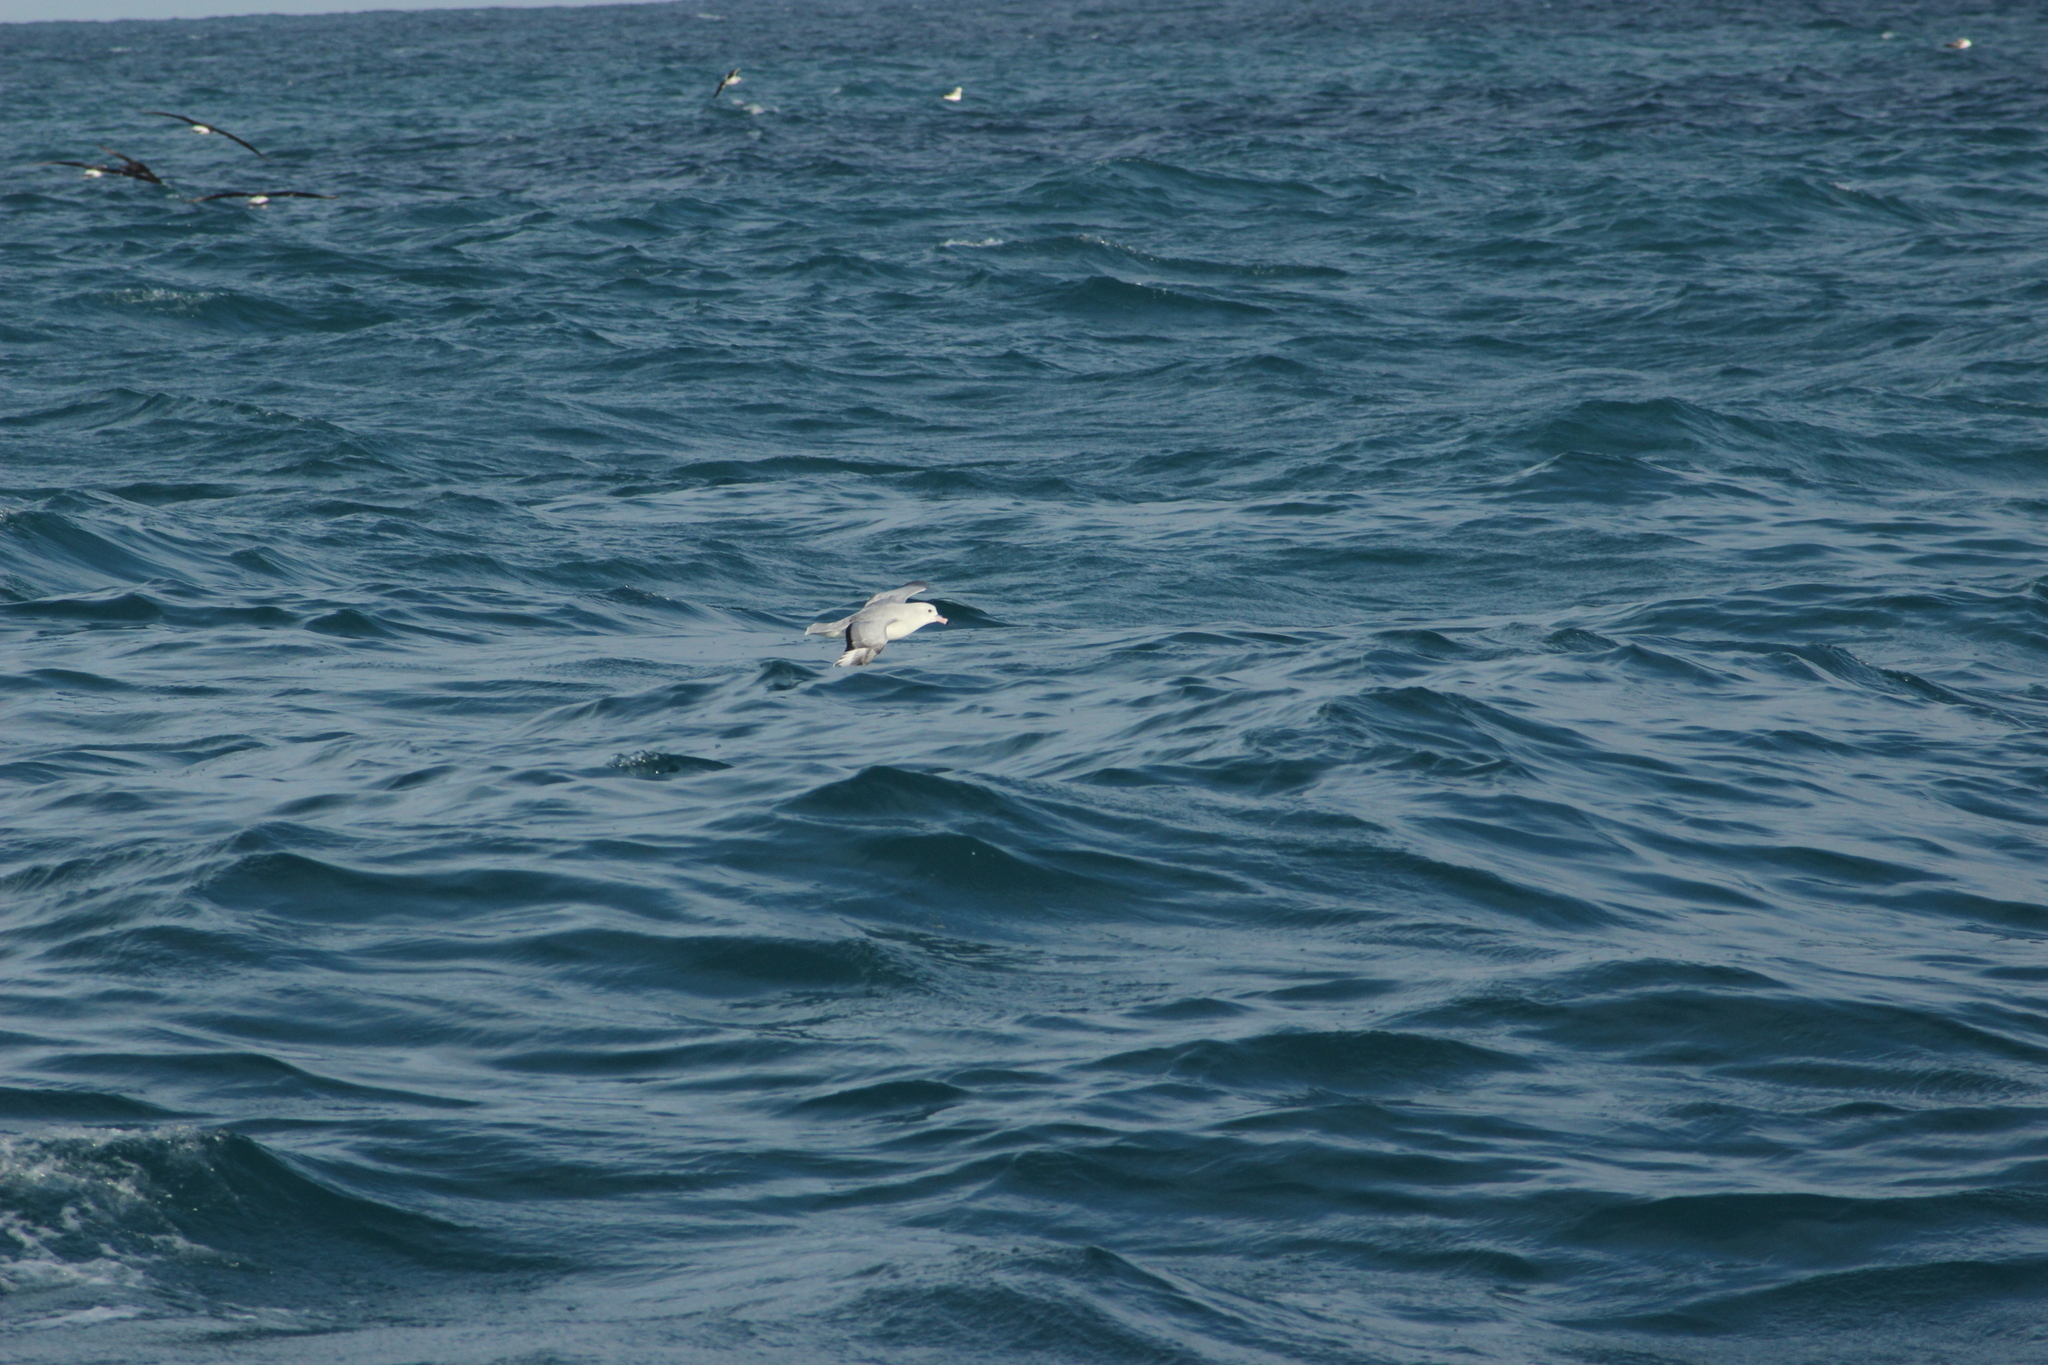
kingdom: Animalia
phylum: Chordata
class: Aves
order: Procellariiformes
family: Procellariidae
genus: Fulmarus
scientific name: Fulmarus glacialoides
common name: Southern fulmar
